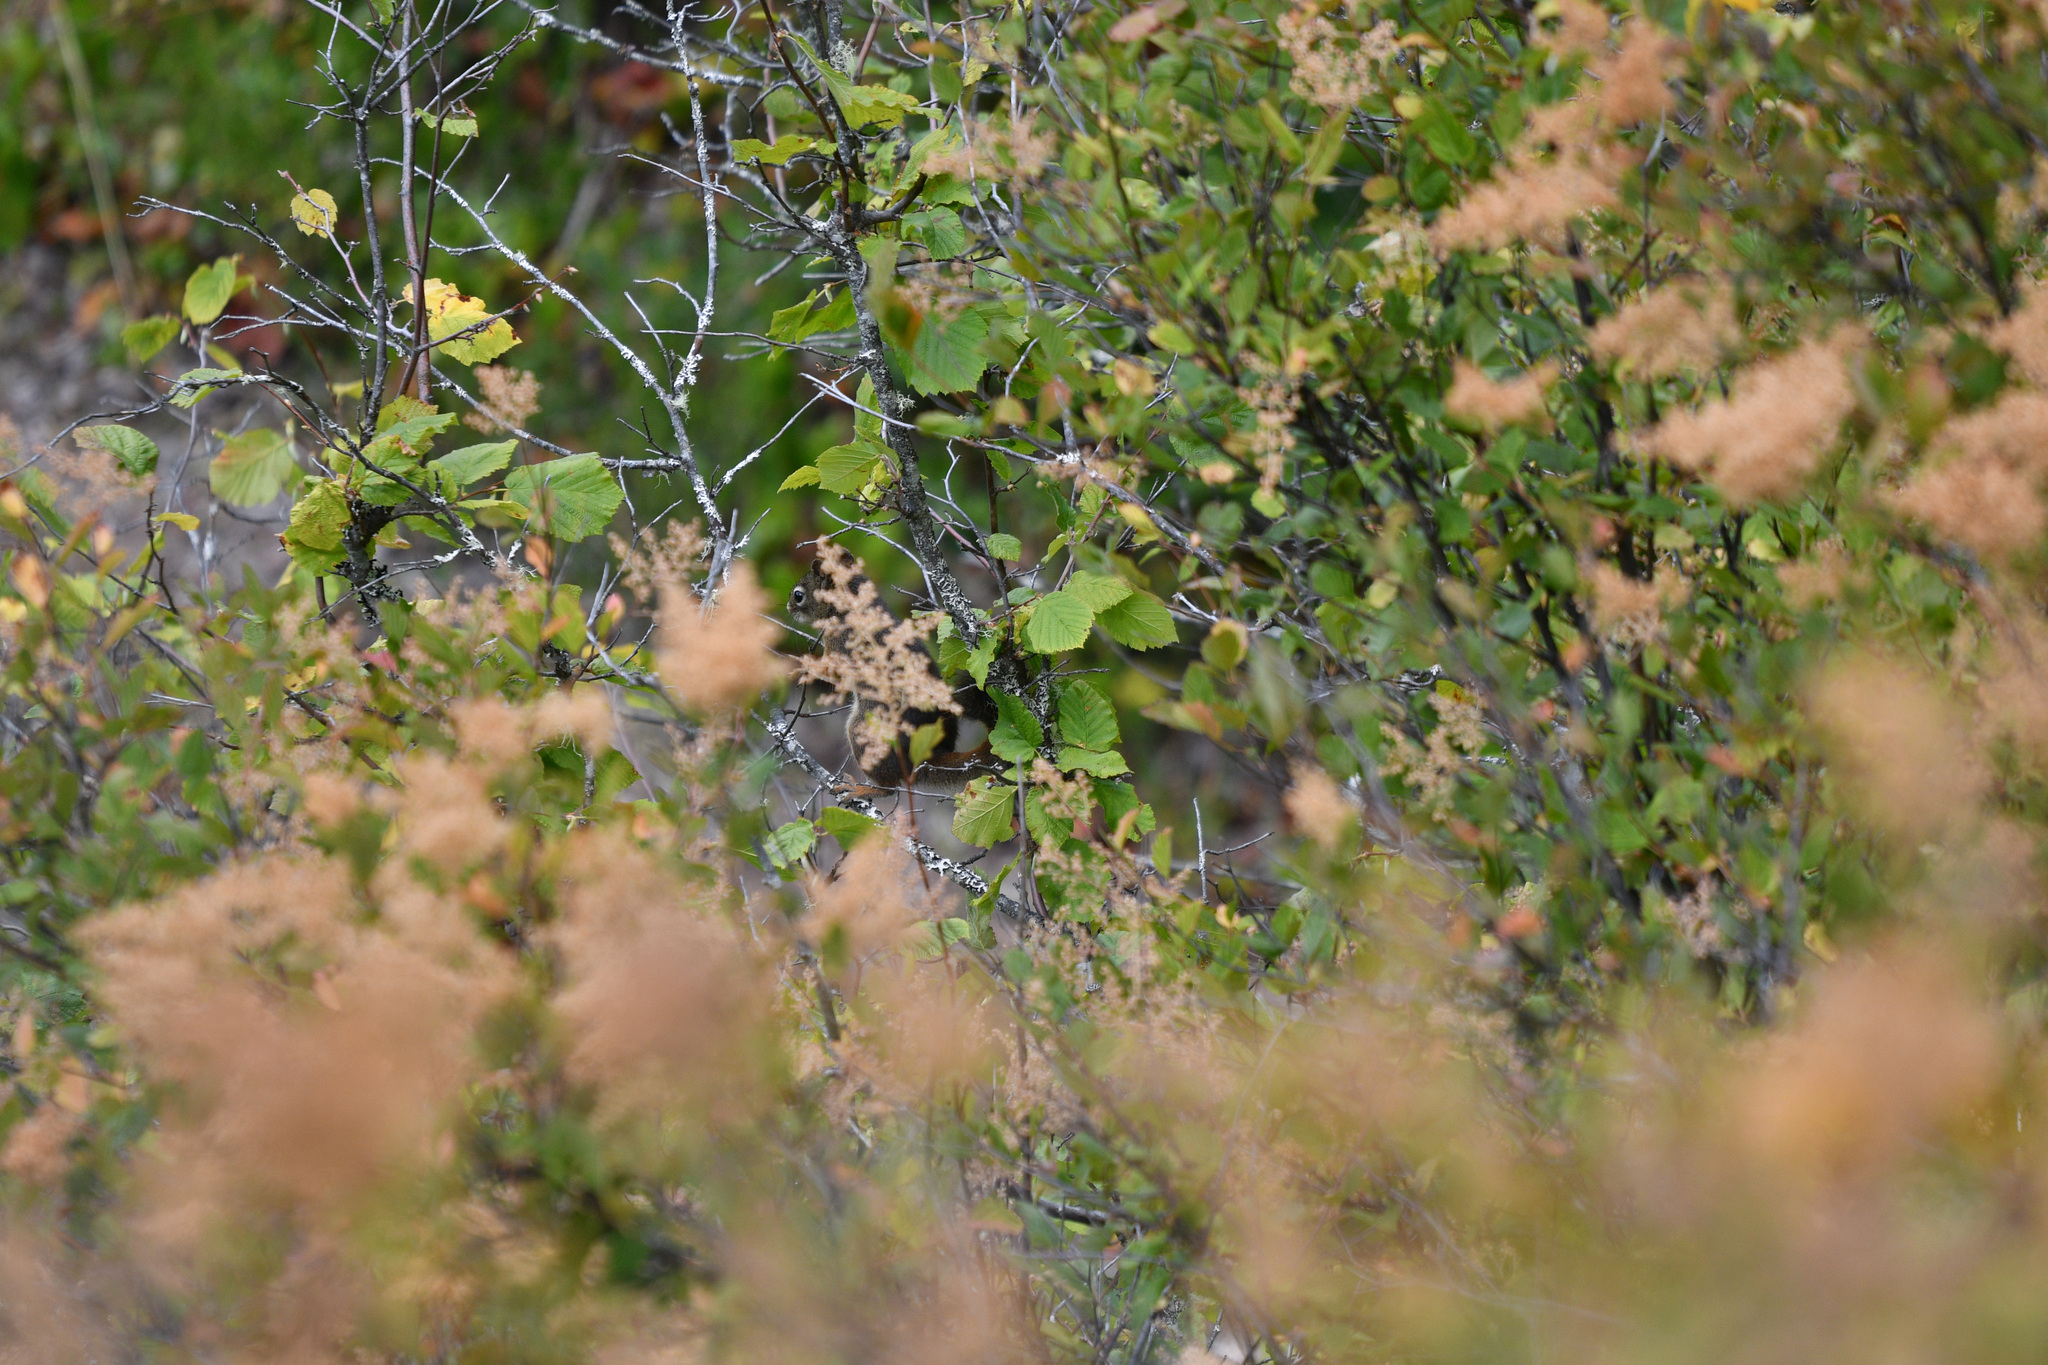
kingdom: Plantae
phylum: Tracheophyta
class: Magnoliopsida
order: Rosales
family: Rosaceae
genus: Holodiscus
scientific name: Holodiscus discolor
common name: Oceanspray
